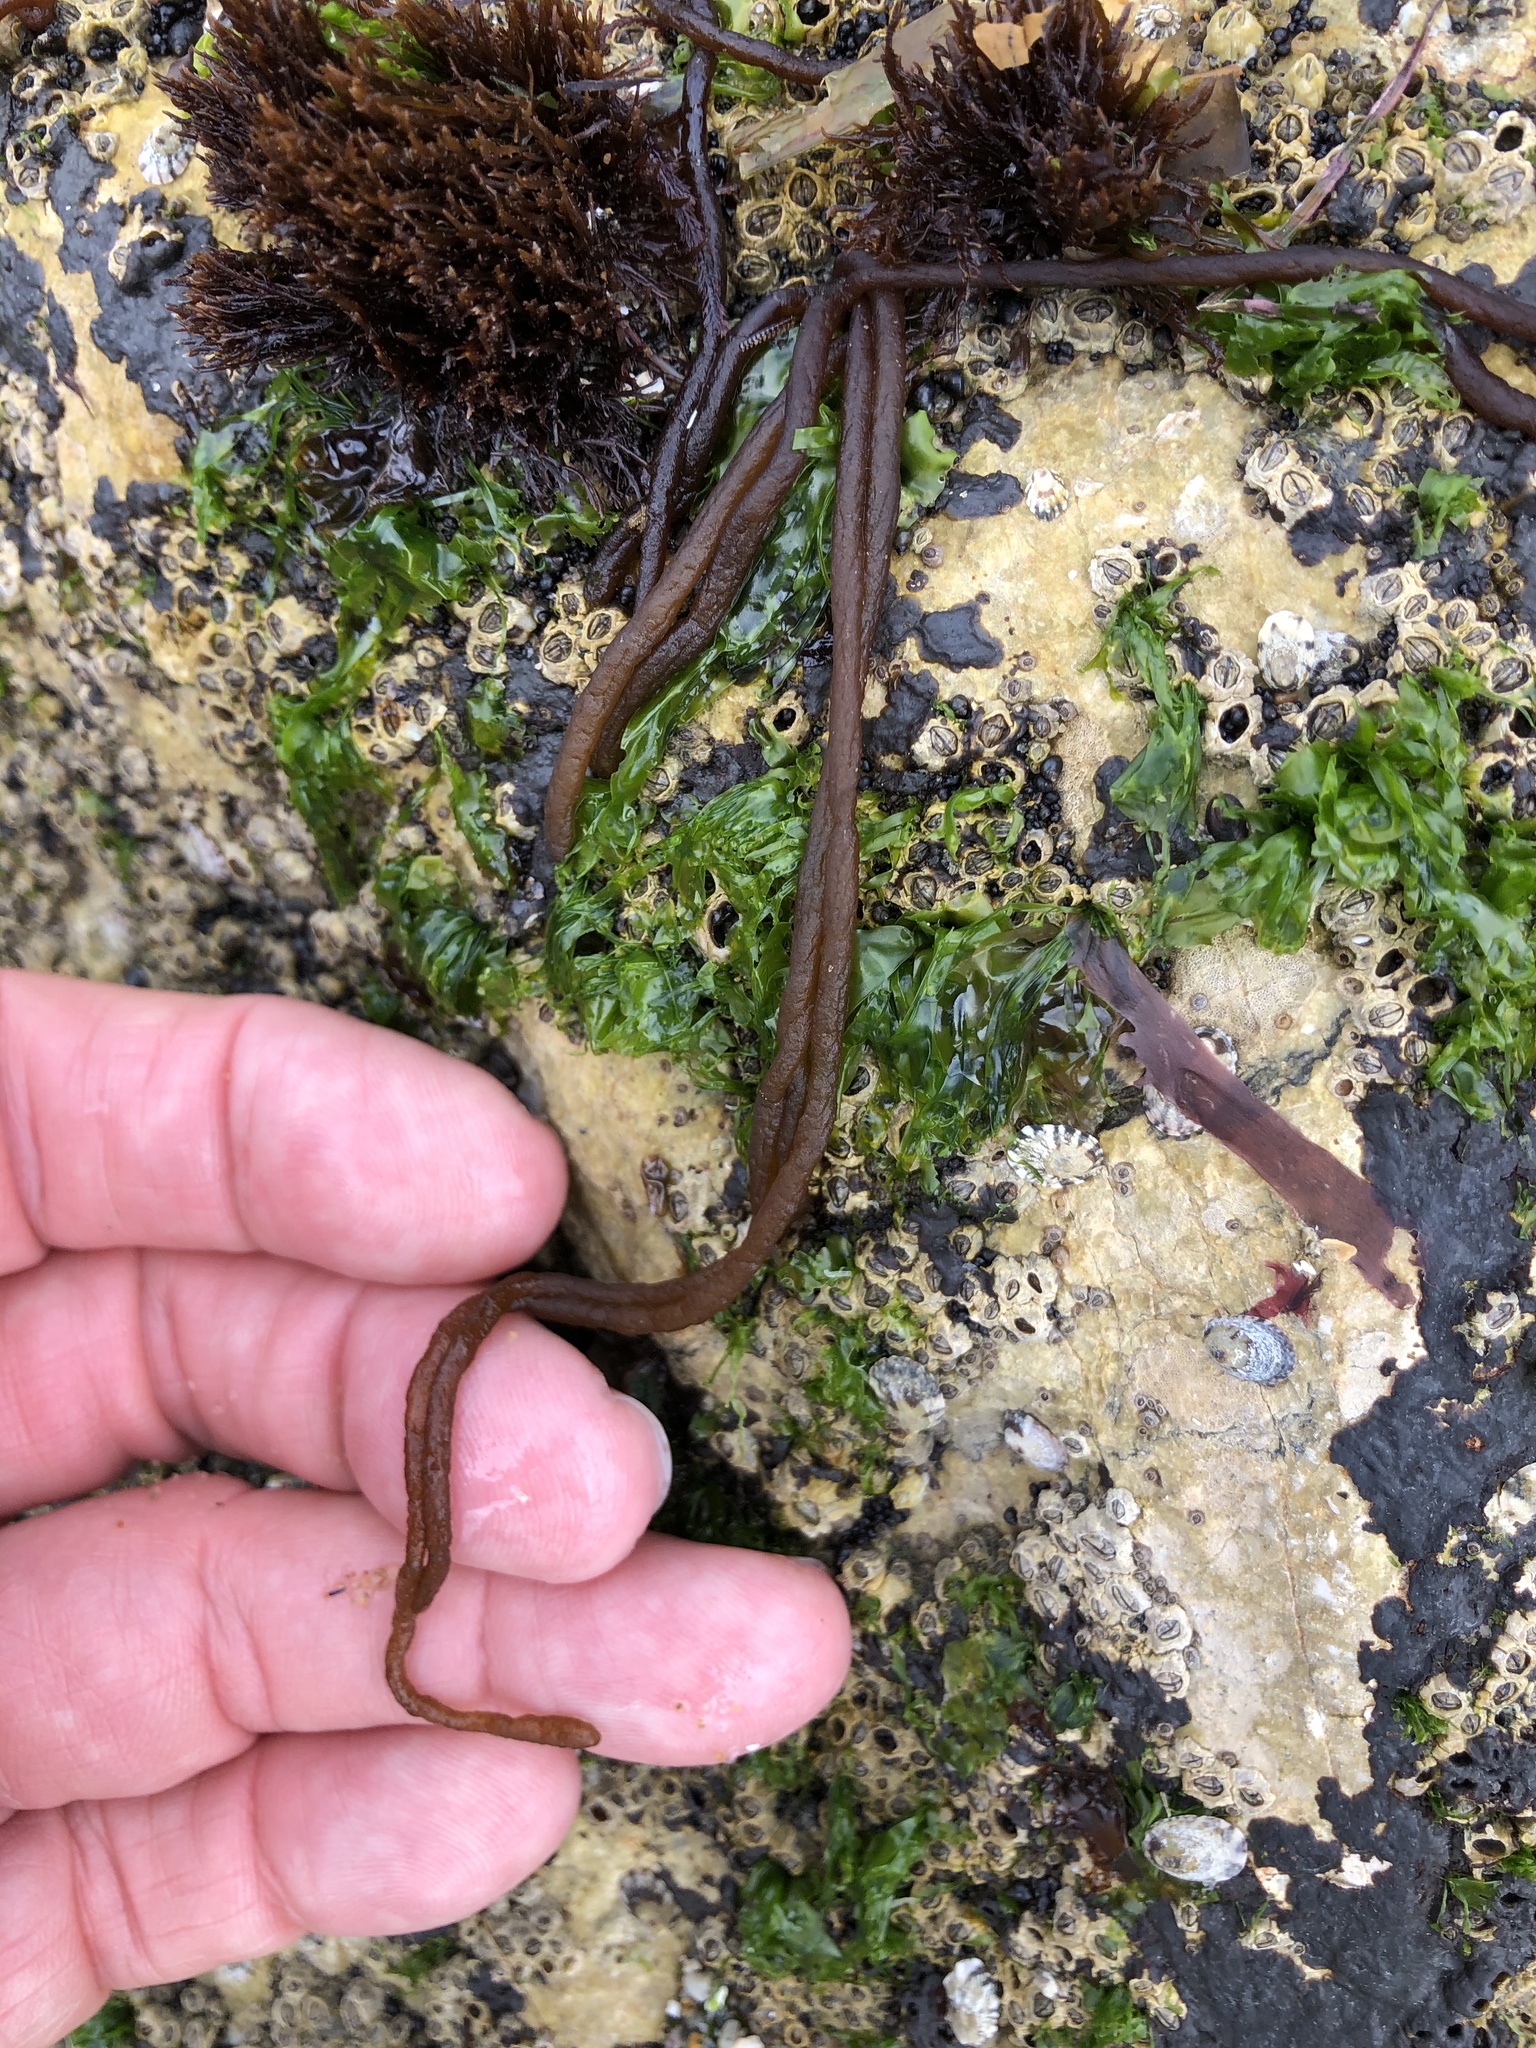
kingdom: Plantae
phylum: Rhodophyta
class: Florideophyceae
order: Nemaliales
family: Nemaliaceae
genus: Nemalion
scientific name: Nemalion elminthoides
